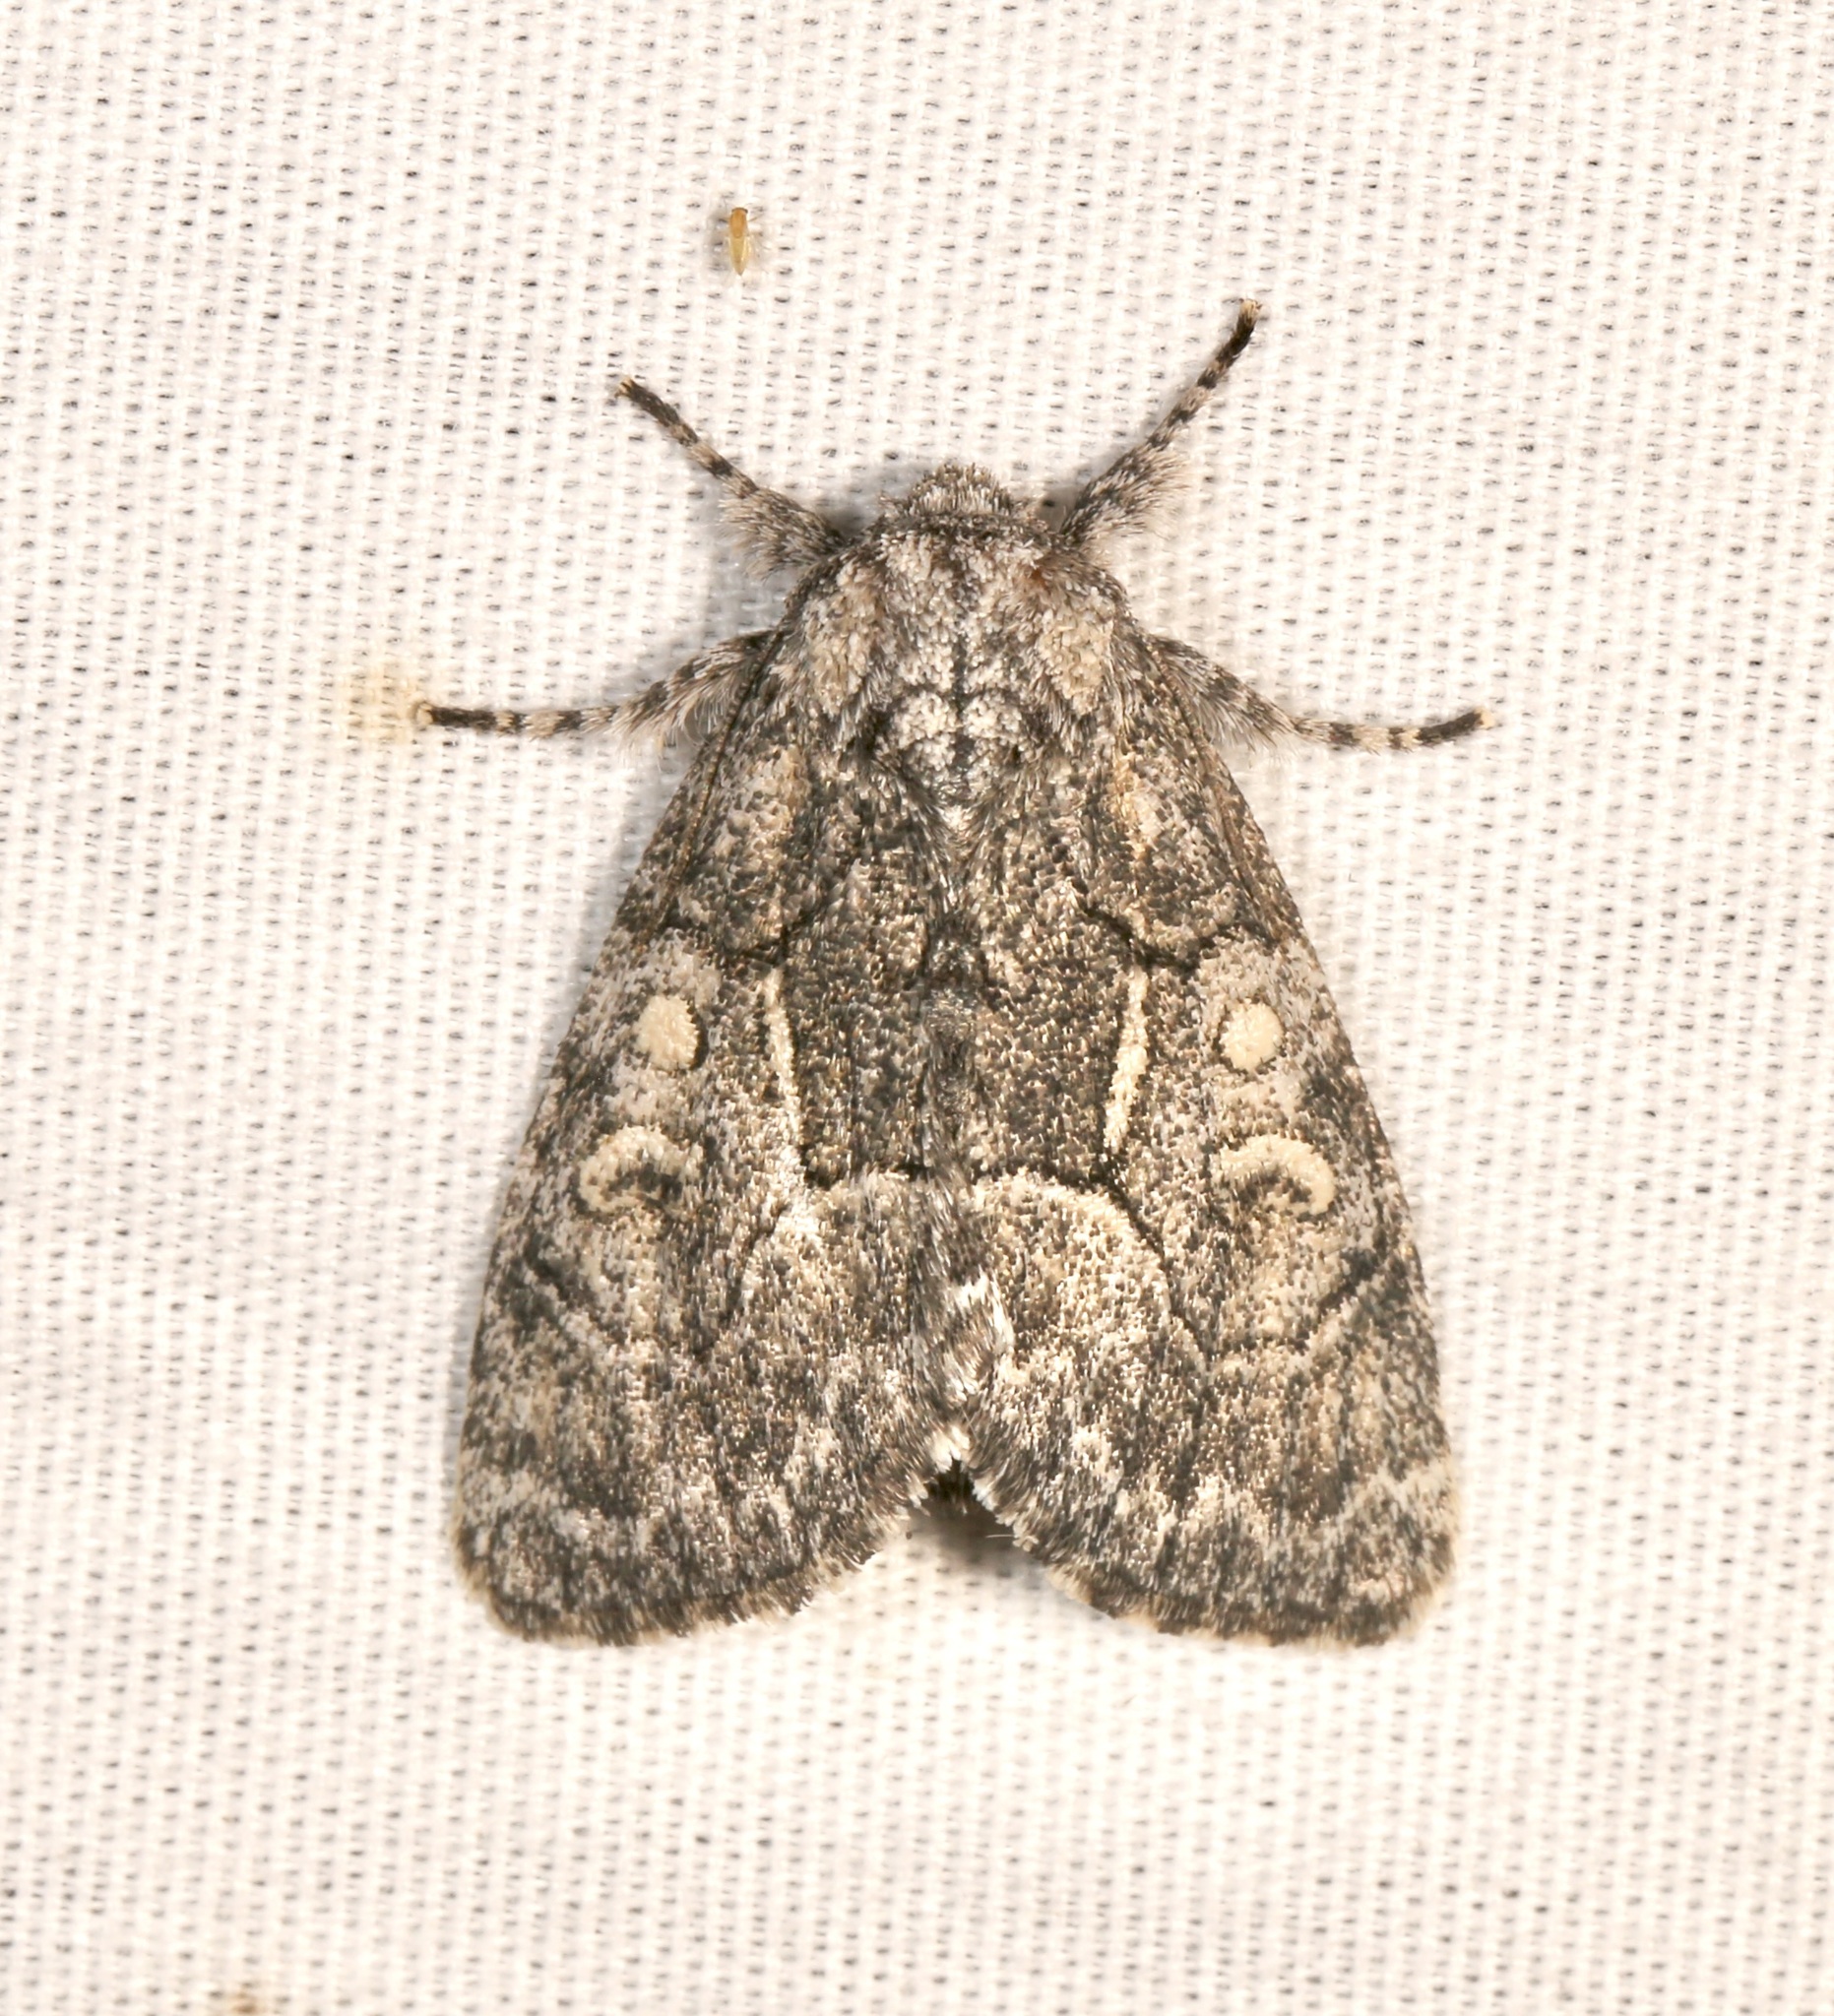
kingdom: Animalia
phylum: Arthropoda
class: Insecta
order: Lepidoptera
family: Noctuidae
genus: Raphia
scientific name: Raphia frater
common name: Brother
